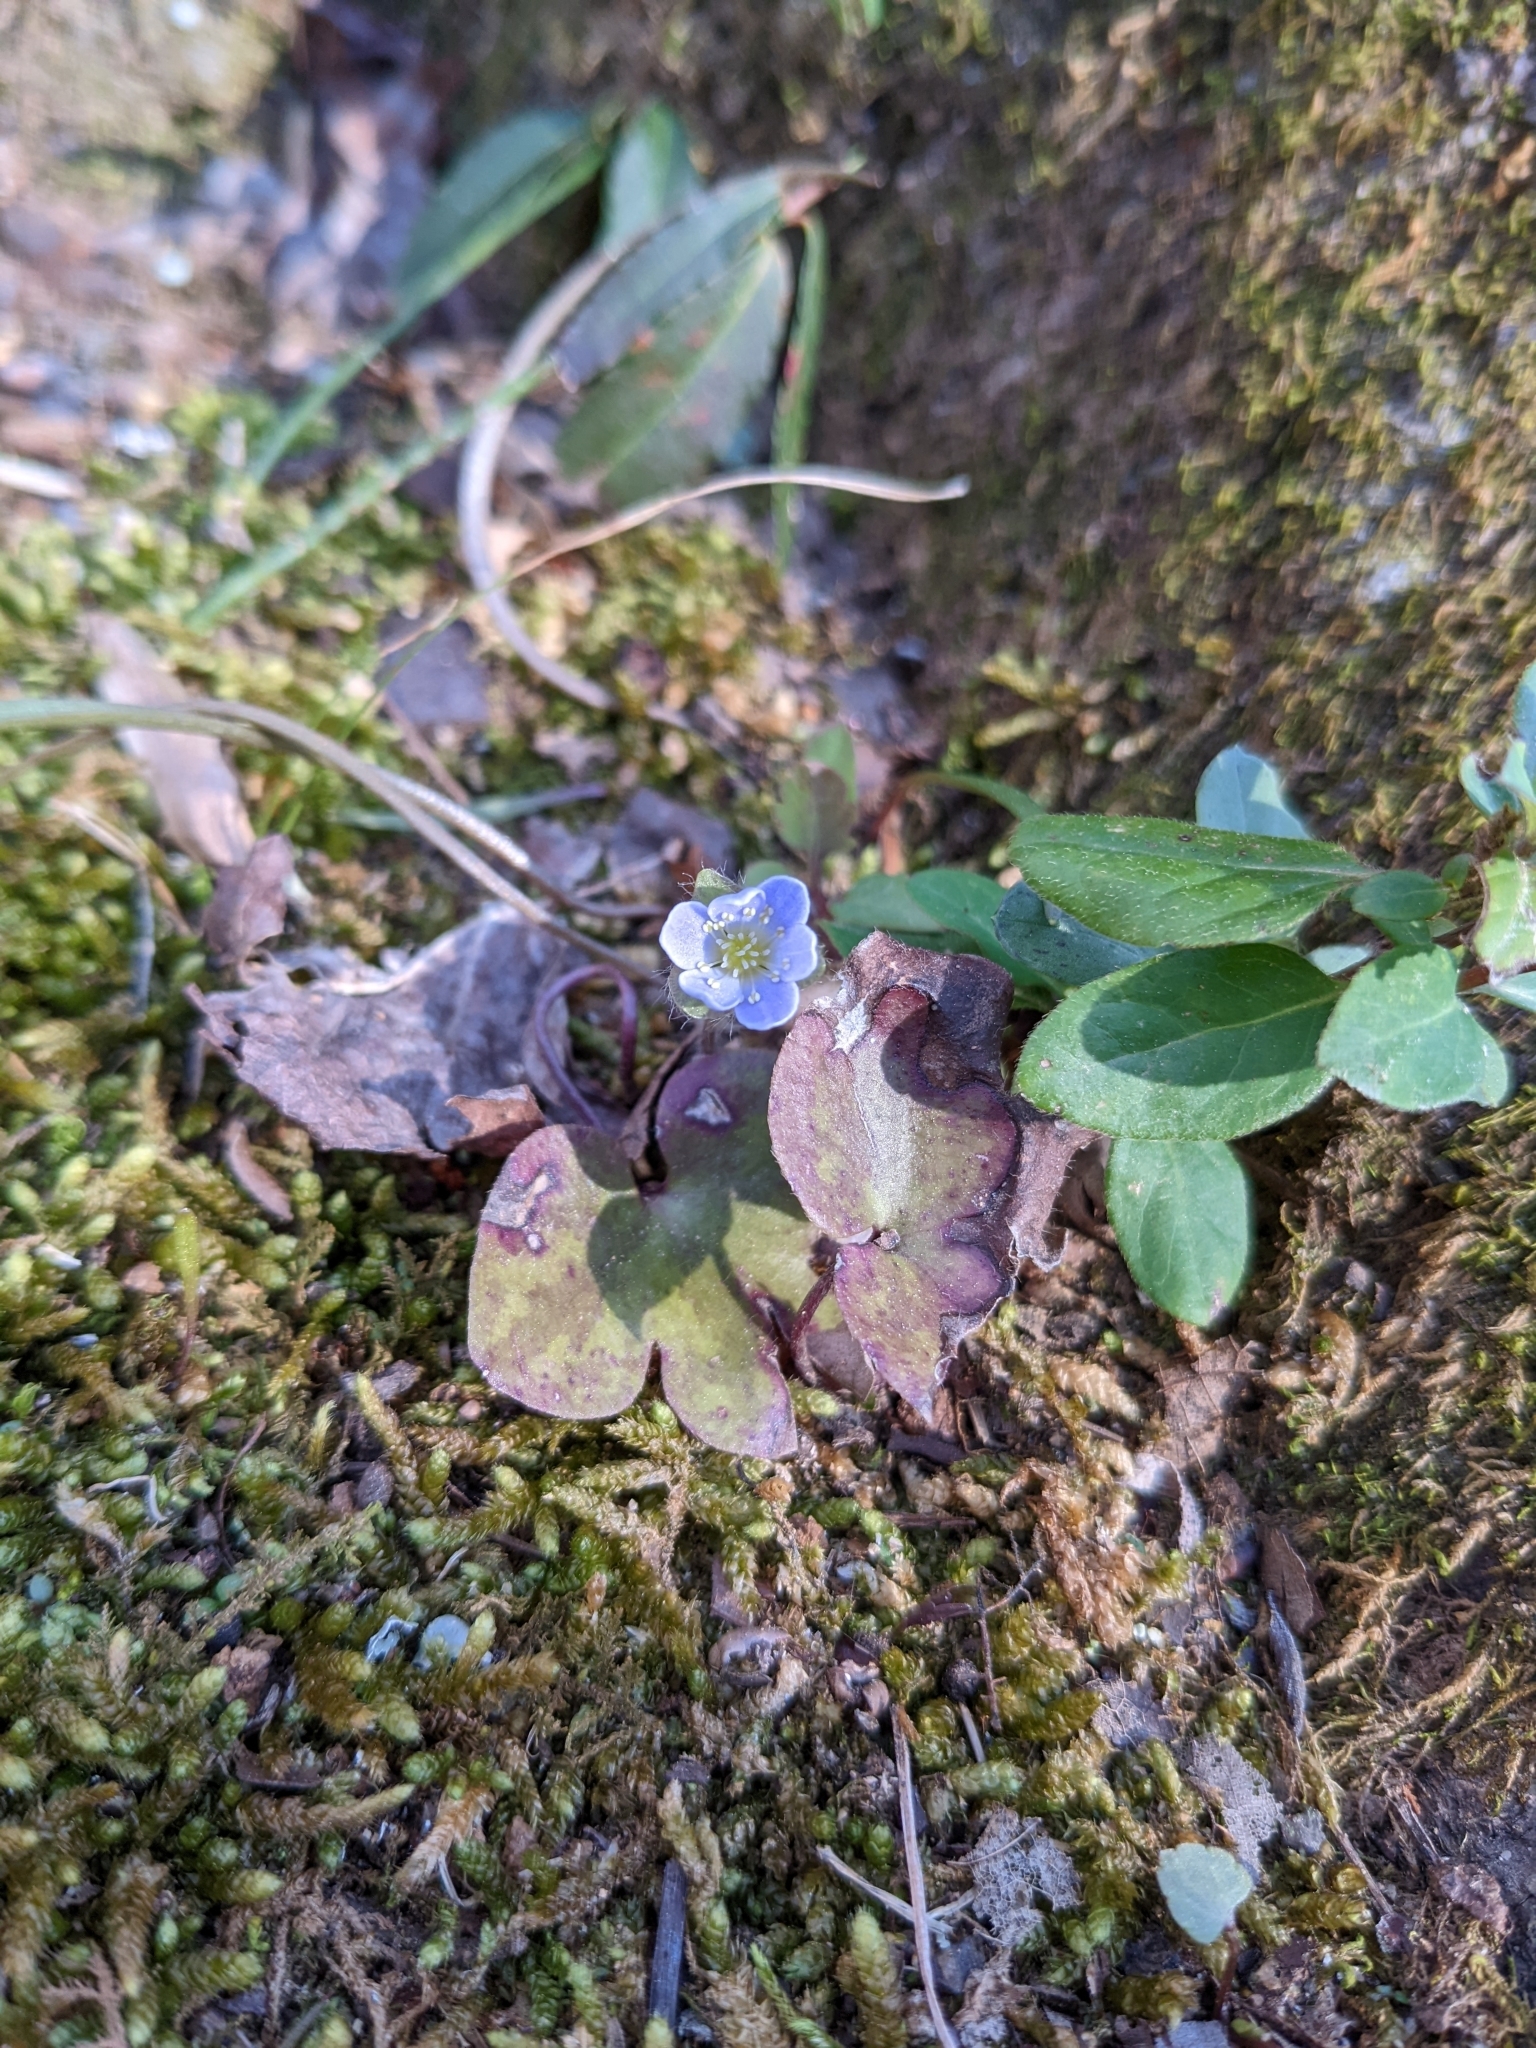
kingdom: Plantae
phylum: Tracheophyta
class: Magnoliopsida
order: Ranunculales
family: Ranunculaceae
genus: Hepatica
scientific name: Hepatica americana
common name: American hepatica
